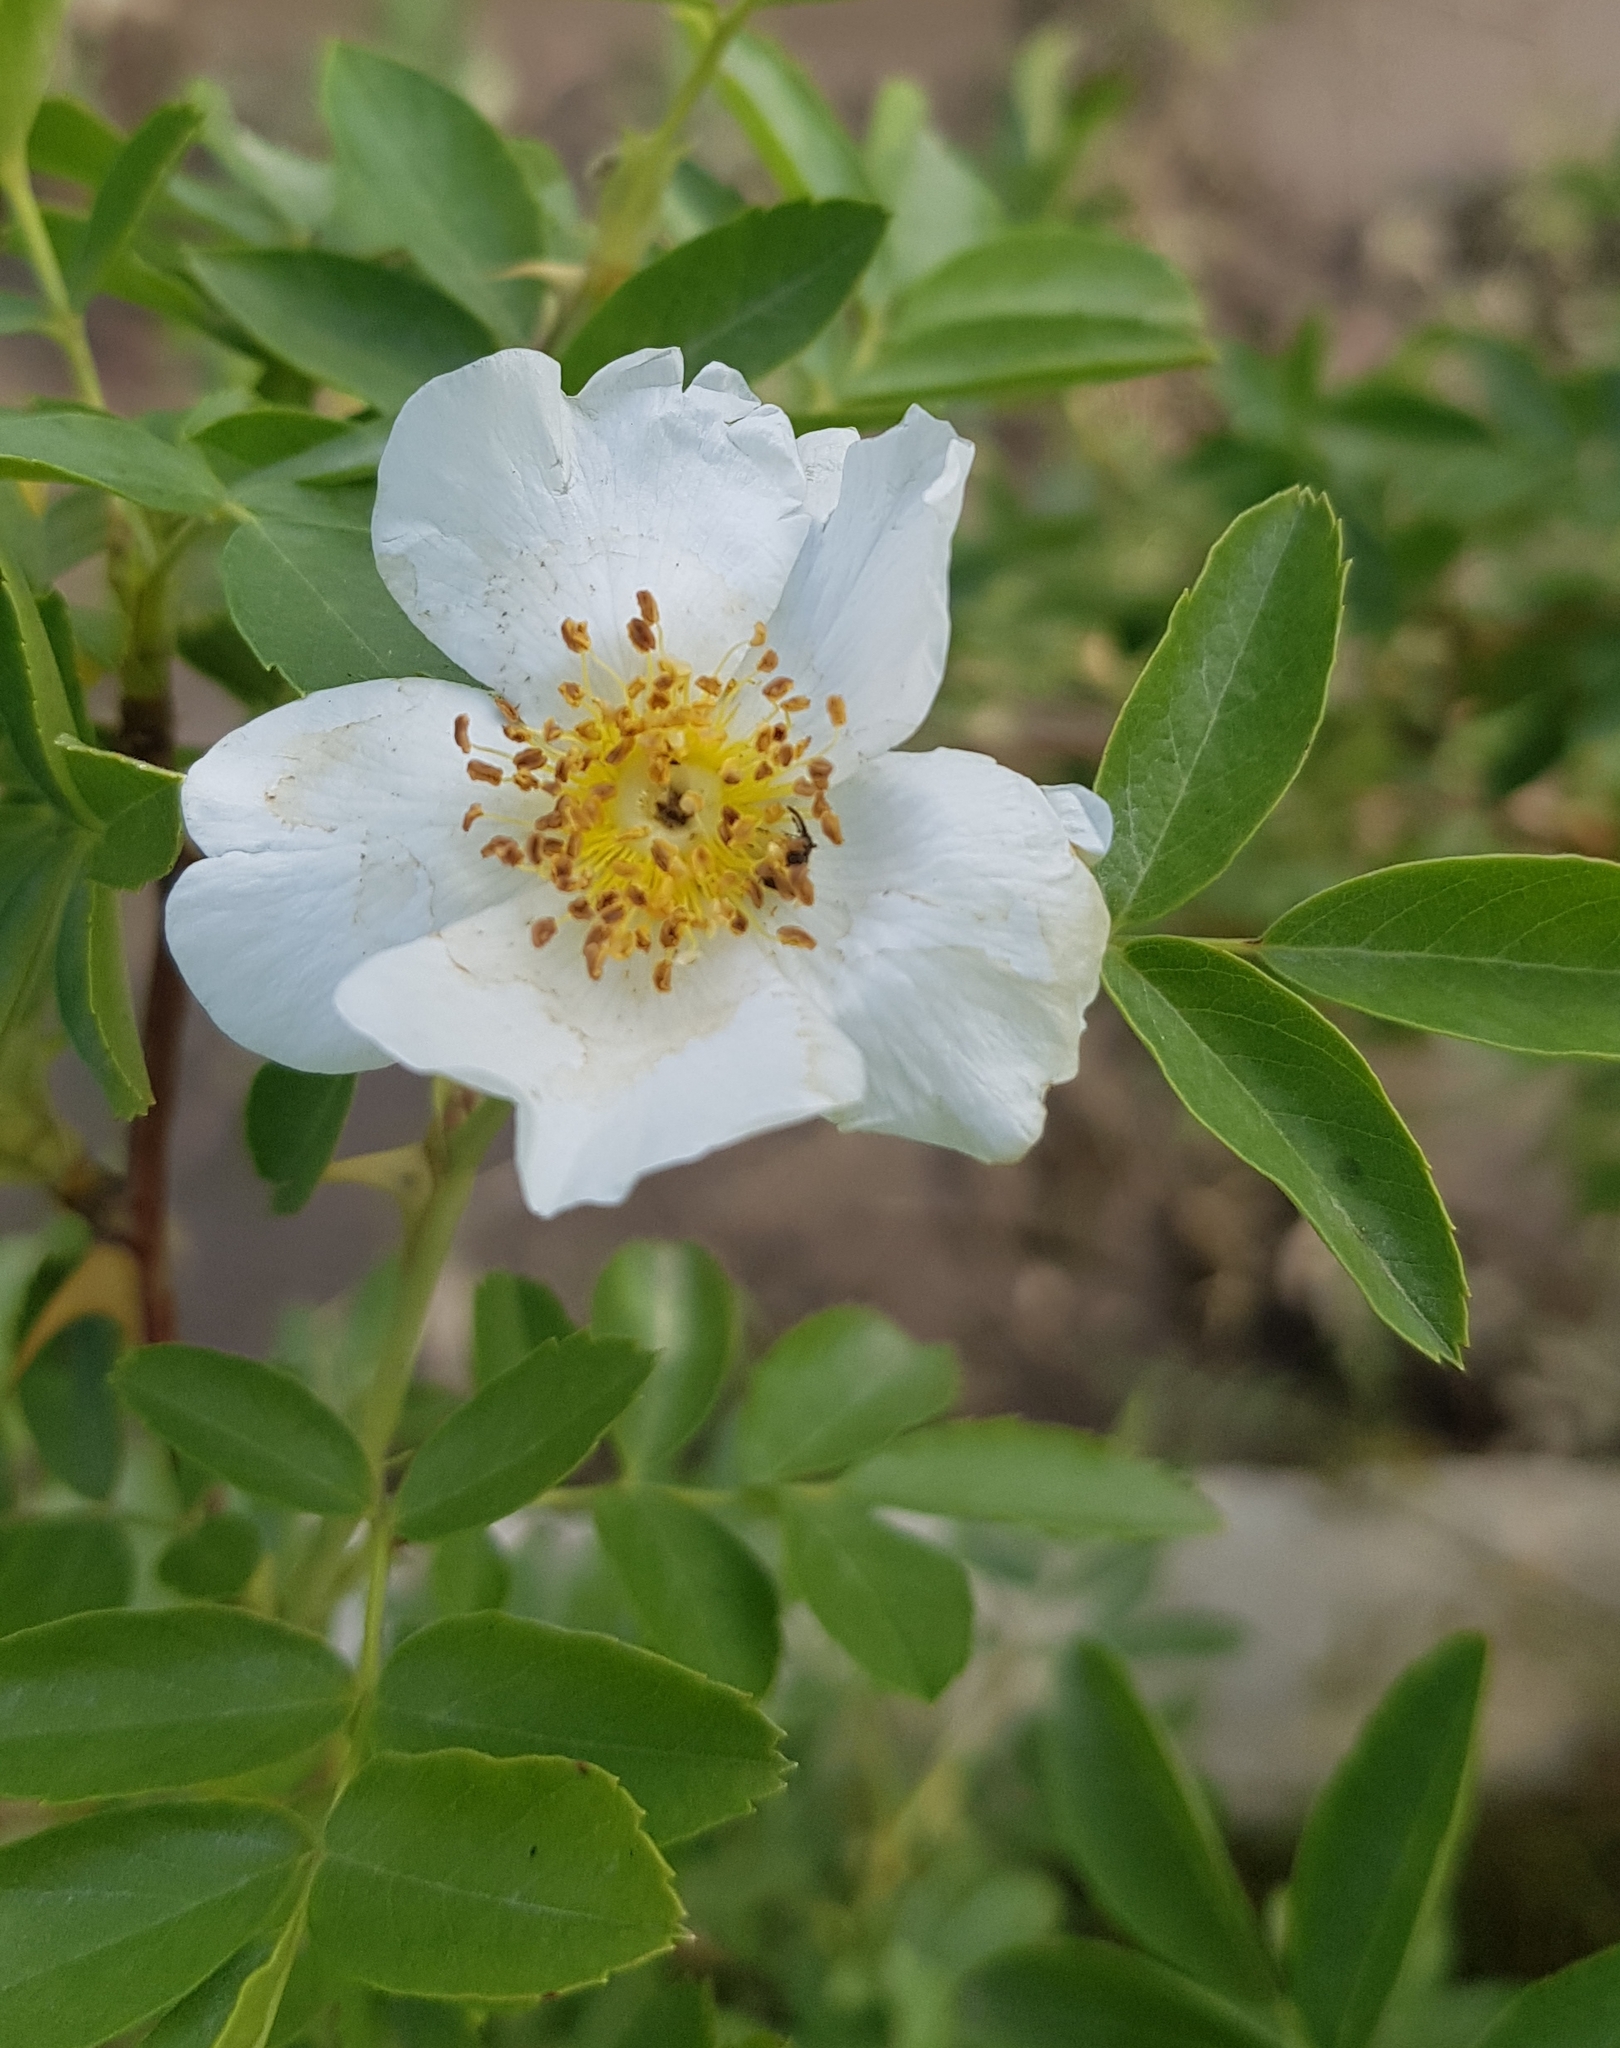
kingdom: Plantae
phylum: Tracheophyta
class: Magnoliopsida
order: Rosales
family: Rosaceae
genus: Rosa
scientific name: Rosa spinosissima
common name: Burnet rose
